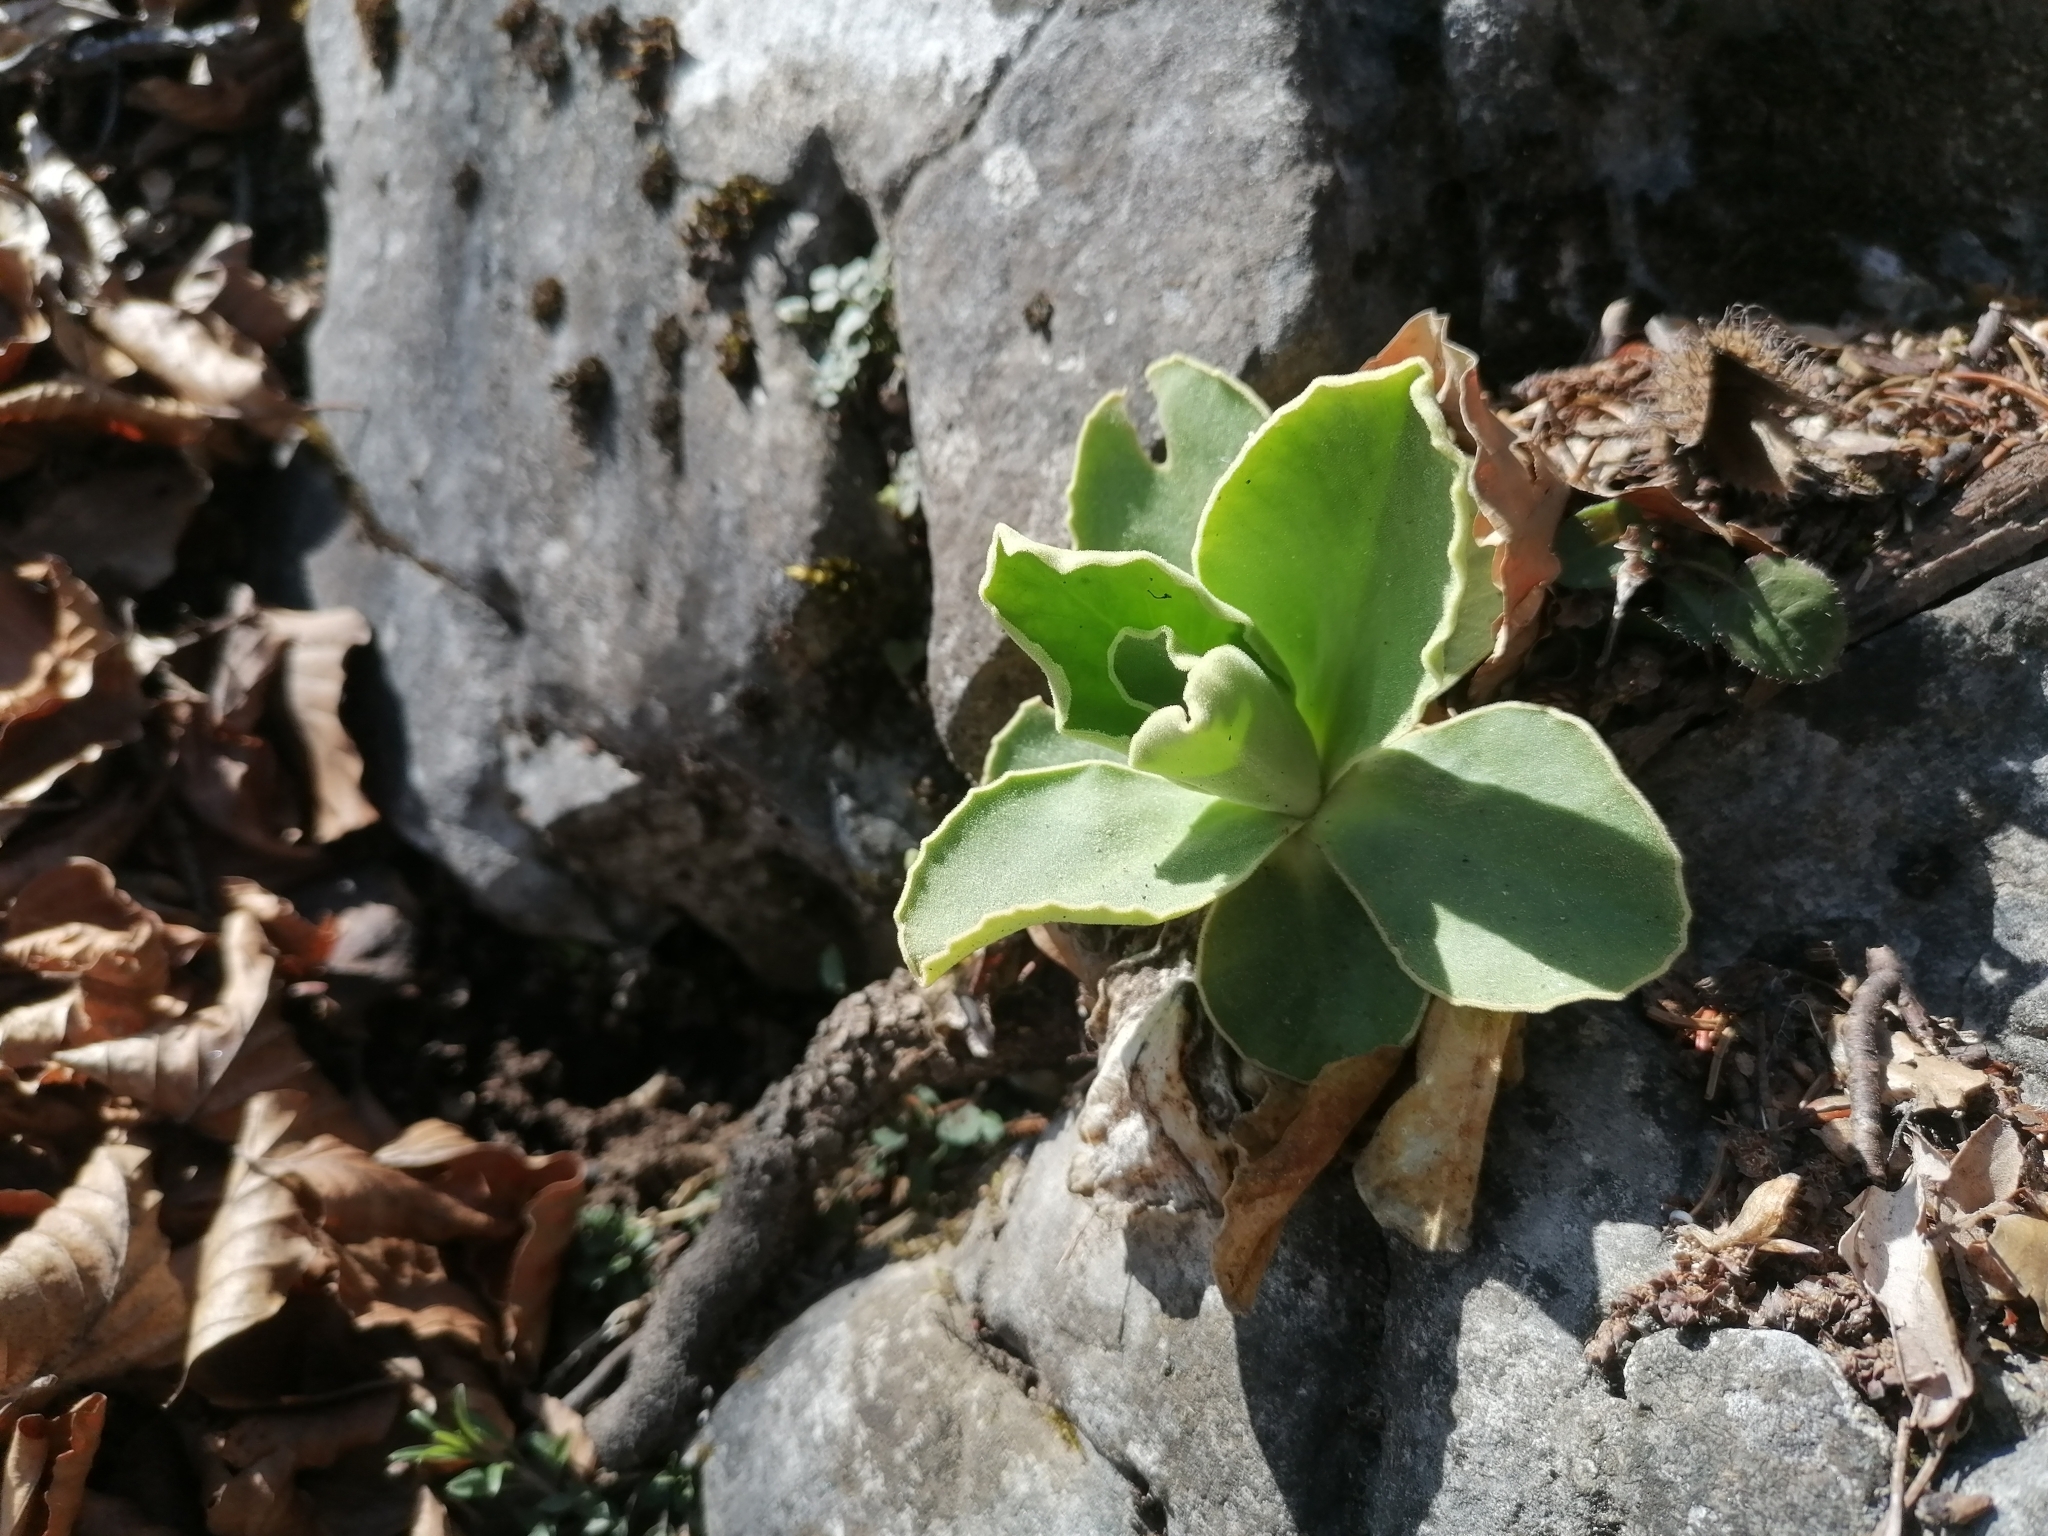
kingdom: Plantae
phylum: Tracheophyta
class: Magnoliopsida
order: Ericales
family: Primulaceae
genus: Primula
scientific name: Primula auricula
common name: Auricula
